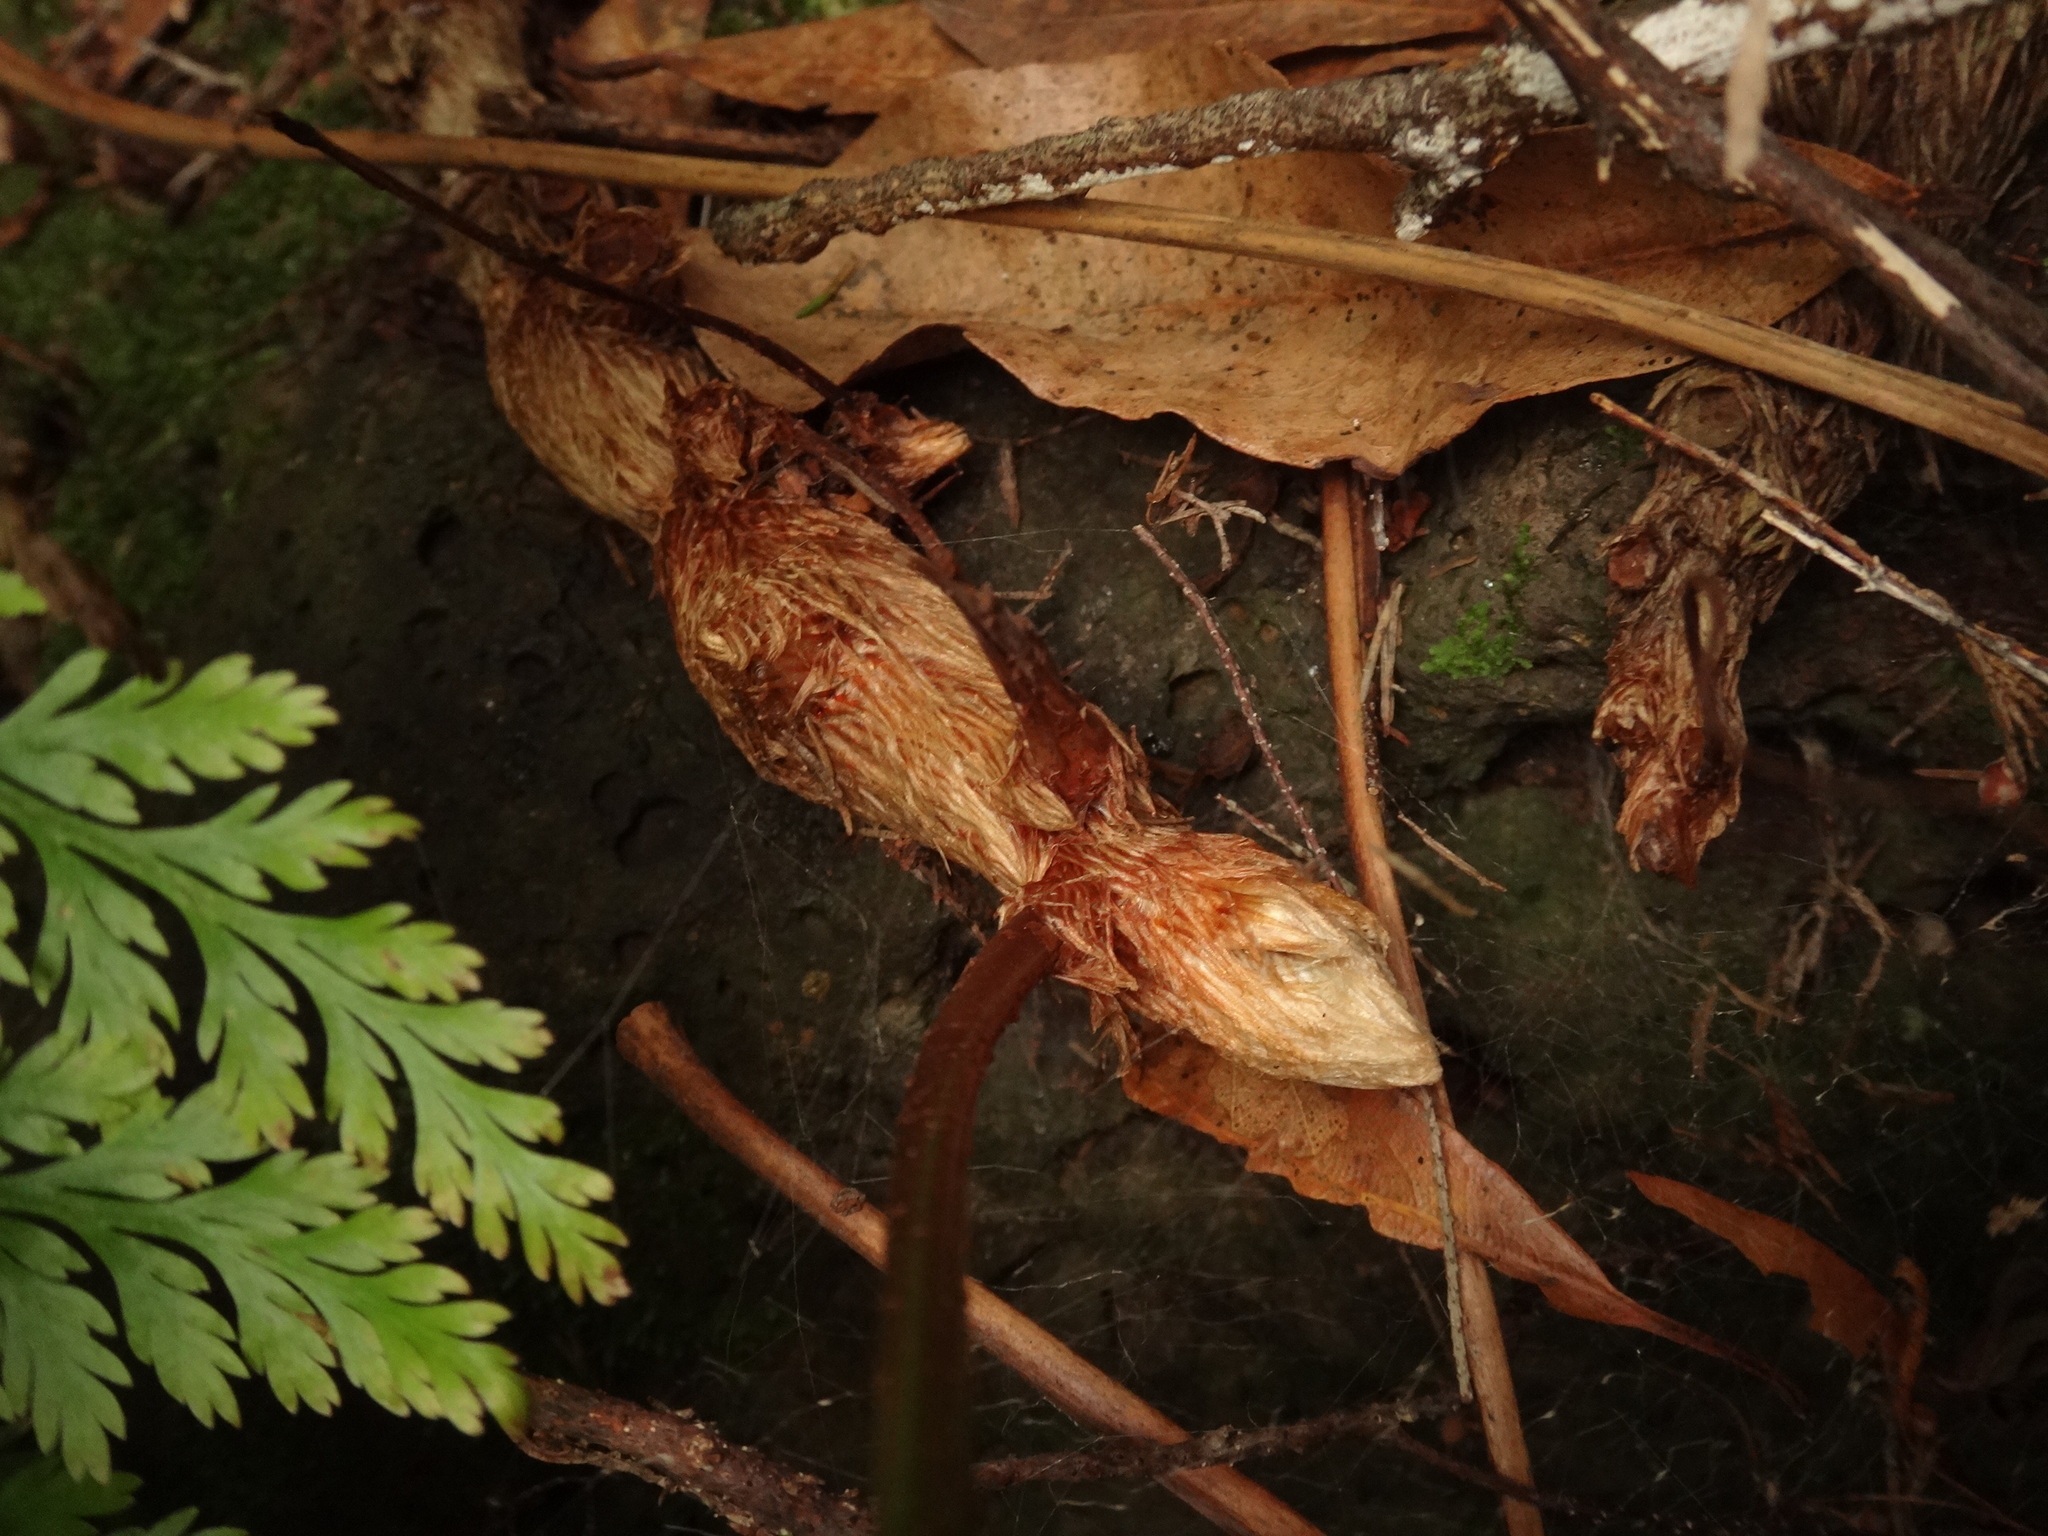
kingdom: Plantae
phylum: Tracheophyta
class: Polypodiopsida
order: Polypodiales
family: Davalliaceae
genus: Davallia
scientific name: Davallia canariensis
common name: Hare's-foot fern
